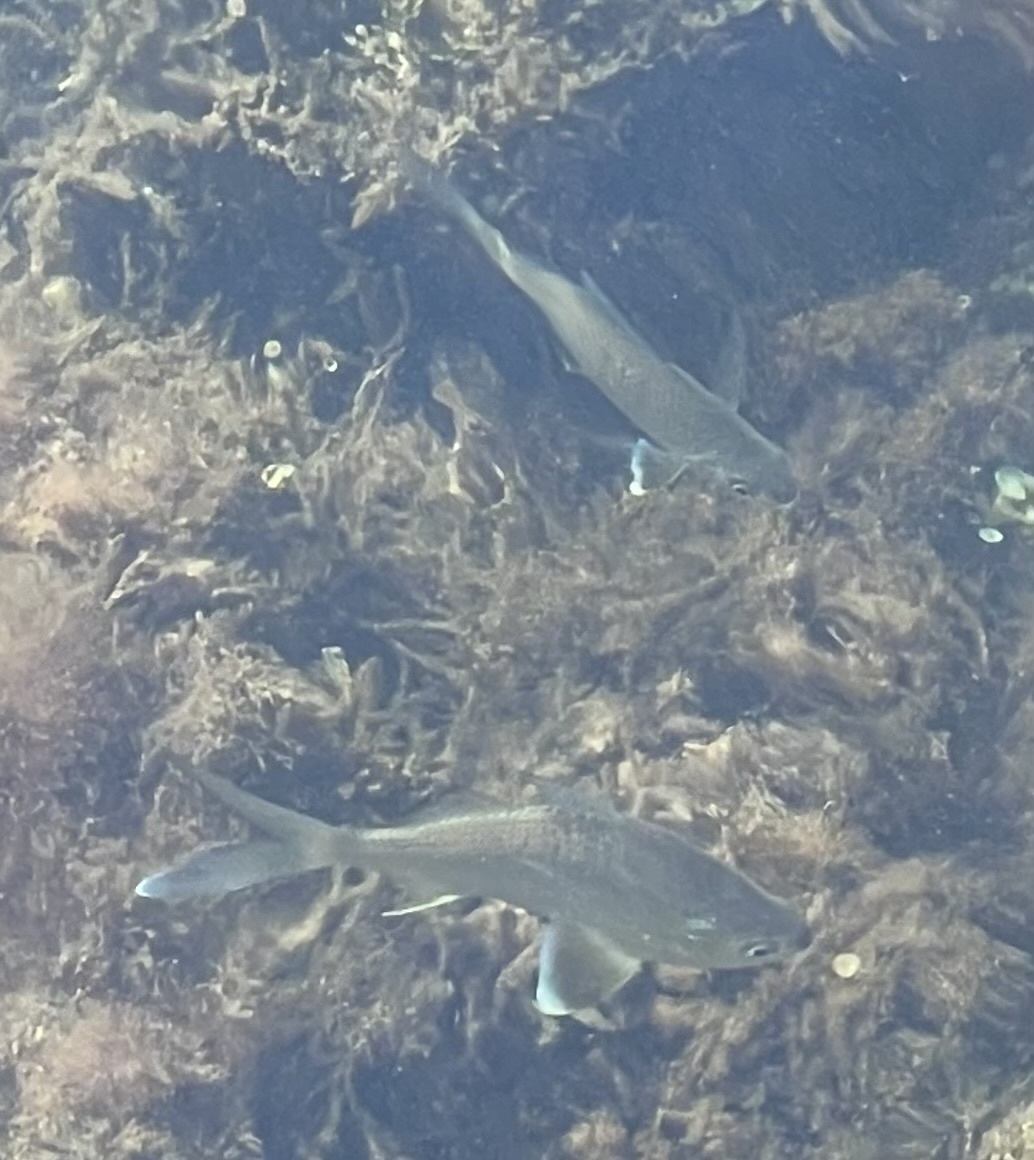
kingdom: Animalia
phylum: Chordata
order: Perciformes
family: Gerreidae
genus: Diapterus
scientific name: Diapterus auratus
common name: Broad shad
